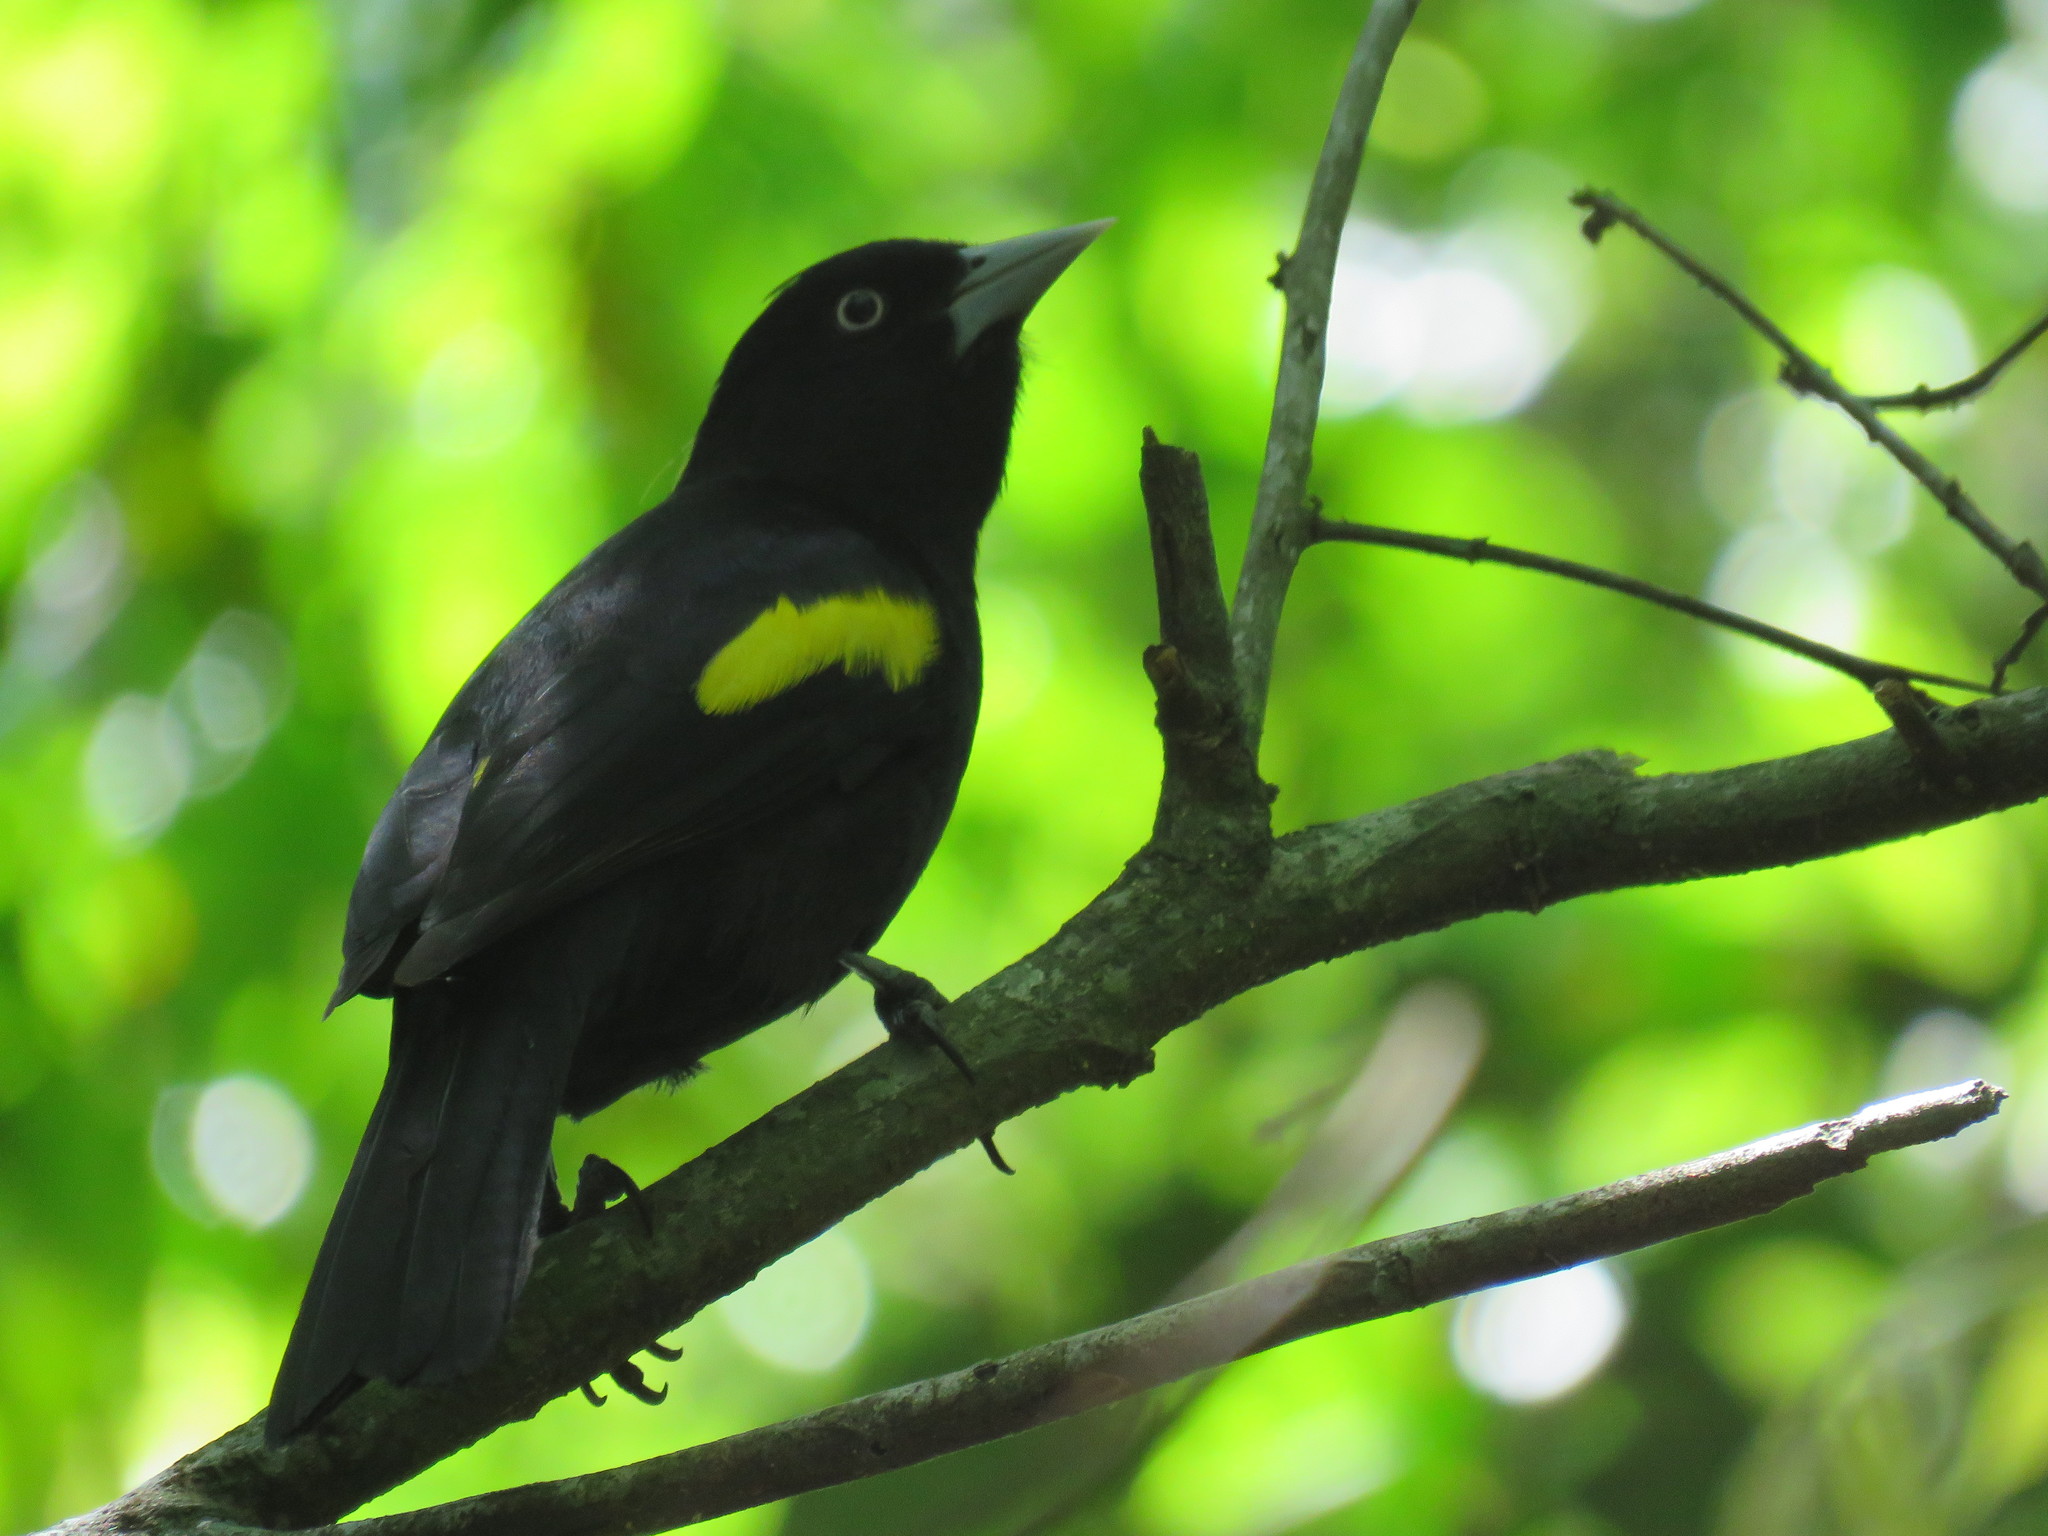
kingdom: Animalia
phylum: Chordata
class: Aves
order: Passeriformes
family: Icteridae
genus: Cacicus
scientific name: Cacicus chrysopterus
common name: Golden-winged cacique
